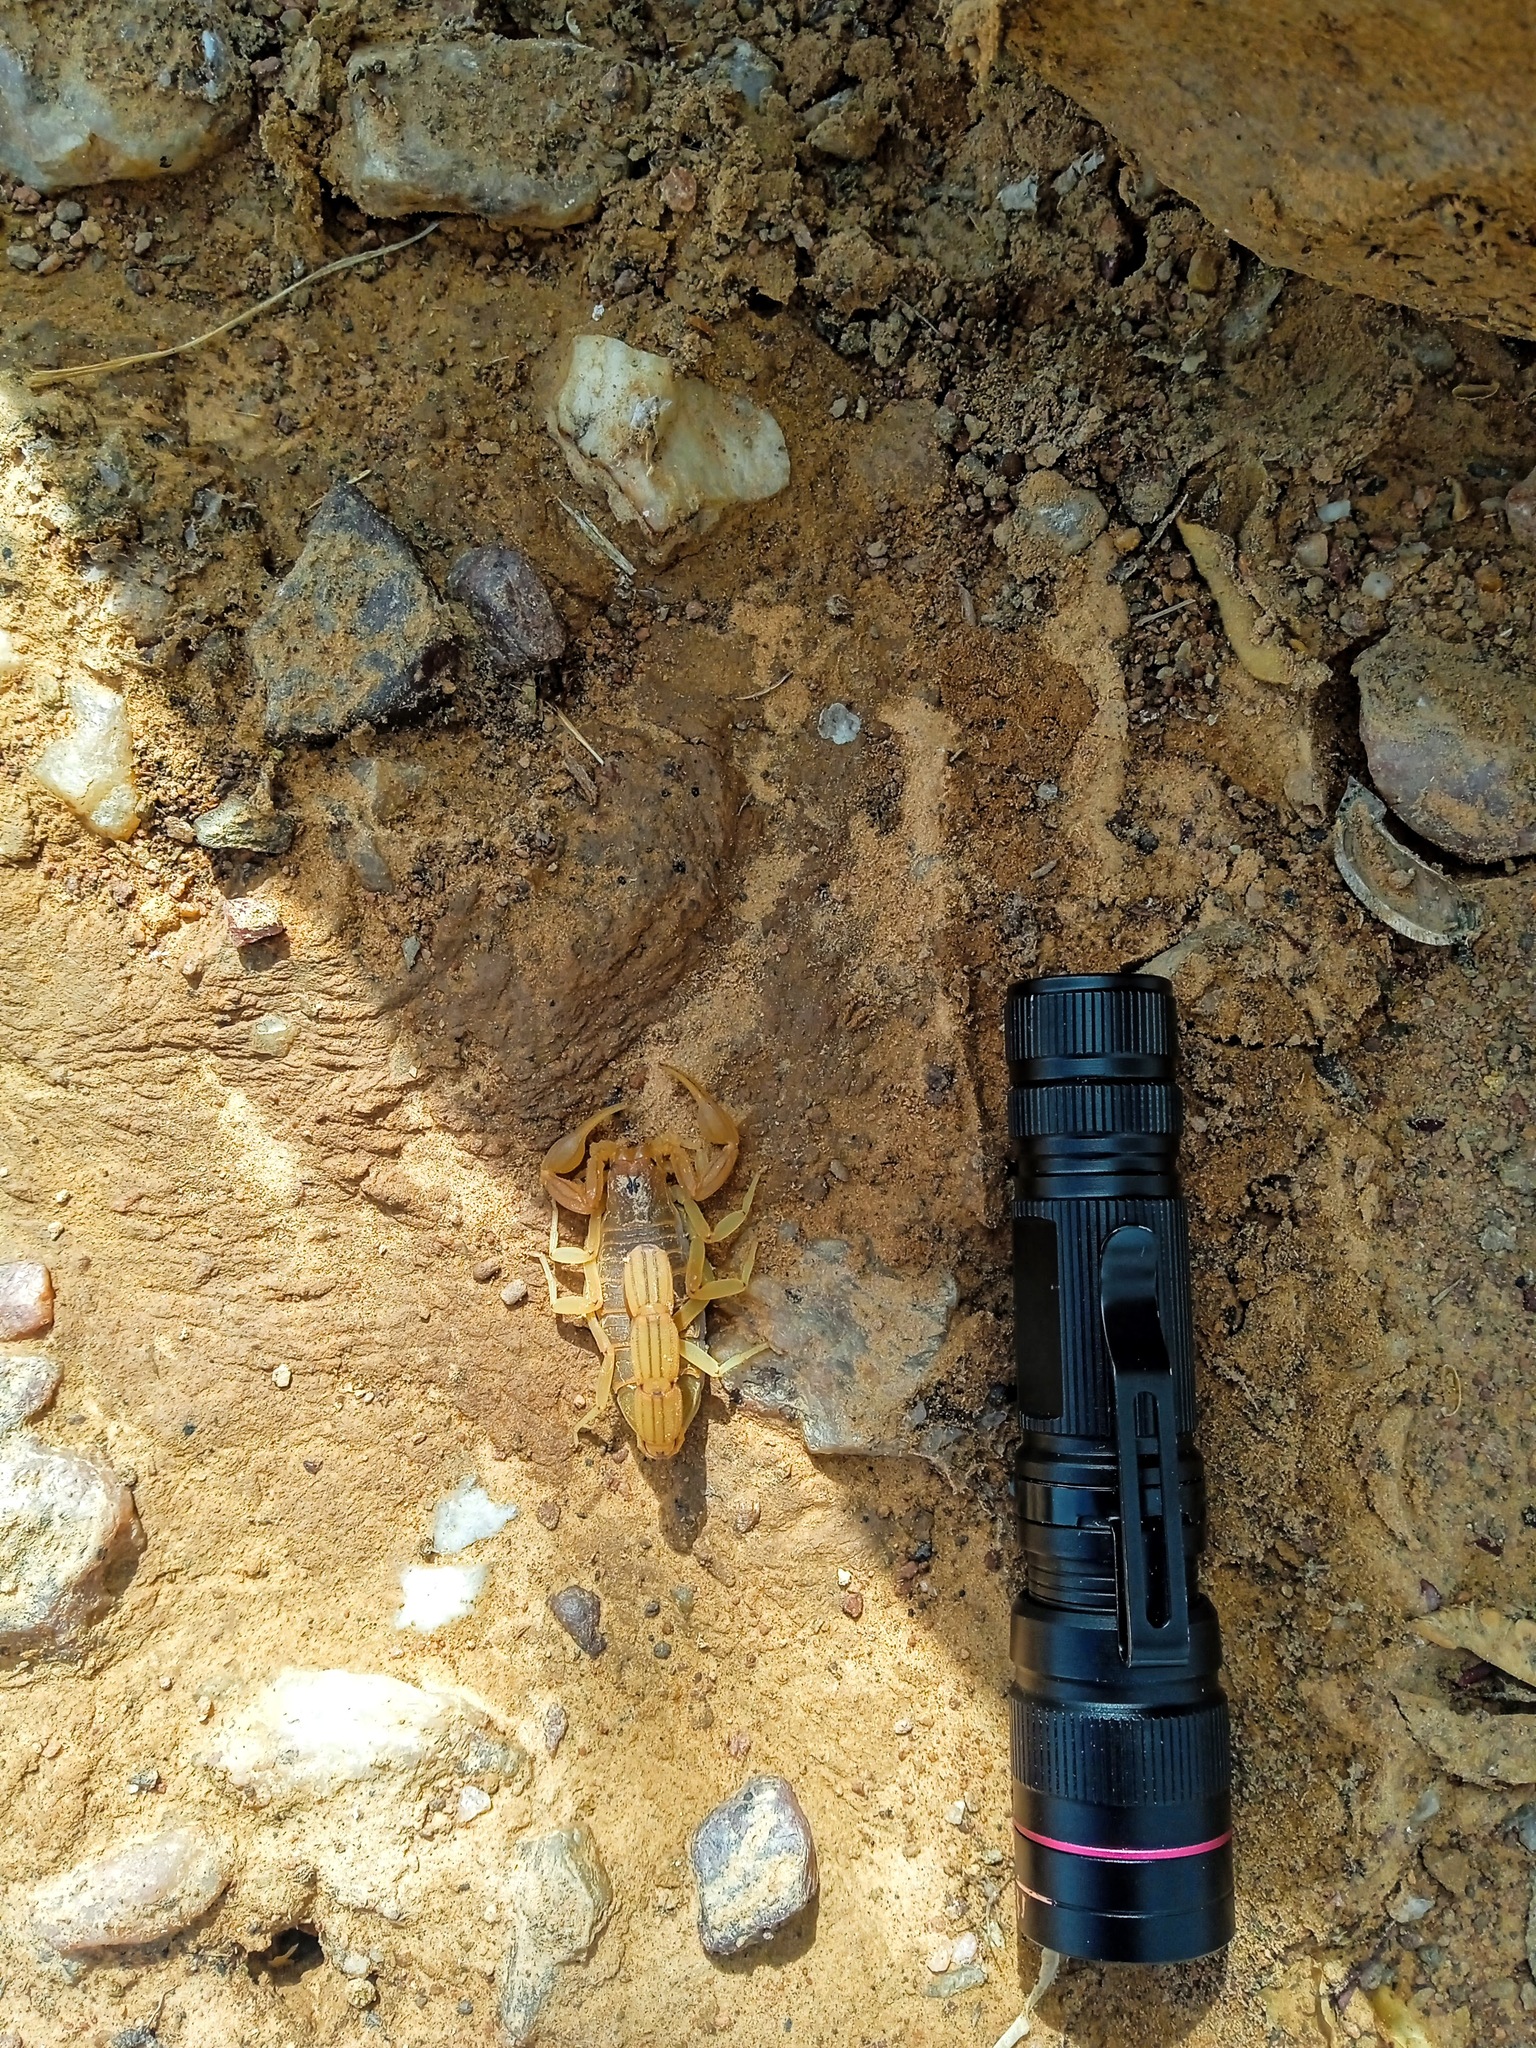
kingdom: Animalia
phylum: Arthropoda
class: Arachnida
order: Scorpiones
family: Buthidae
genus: Jaguajir
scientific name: Jaguajir rochae
